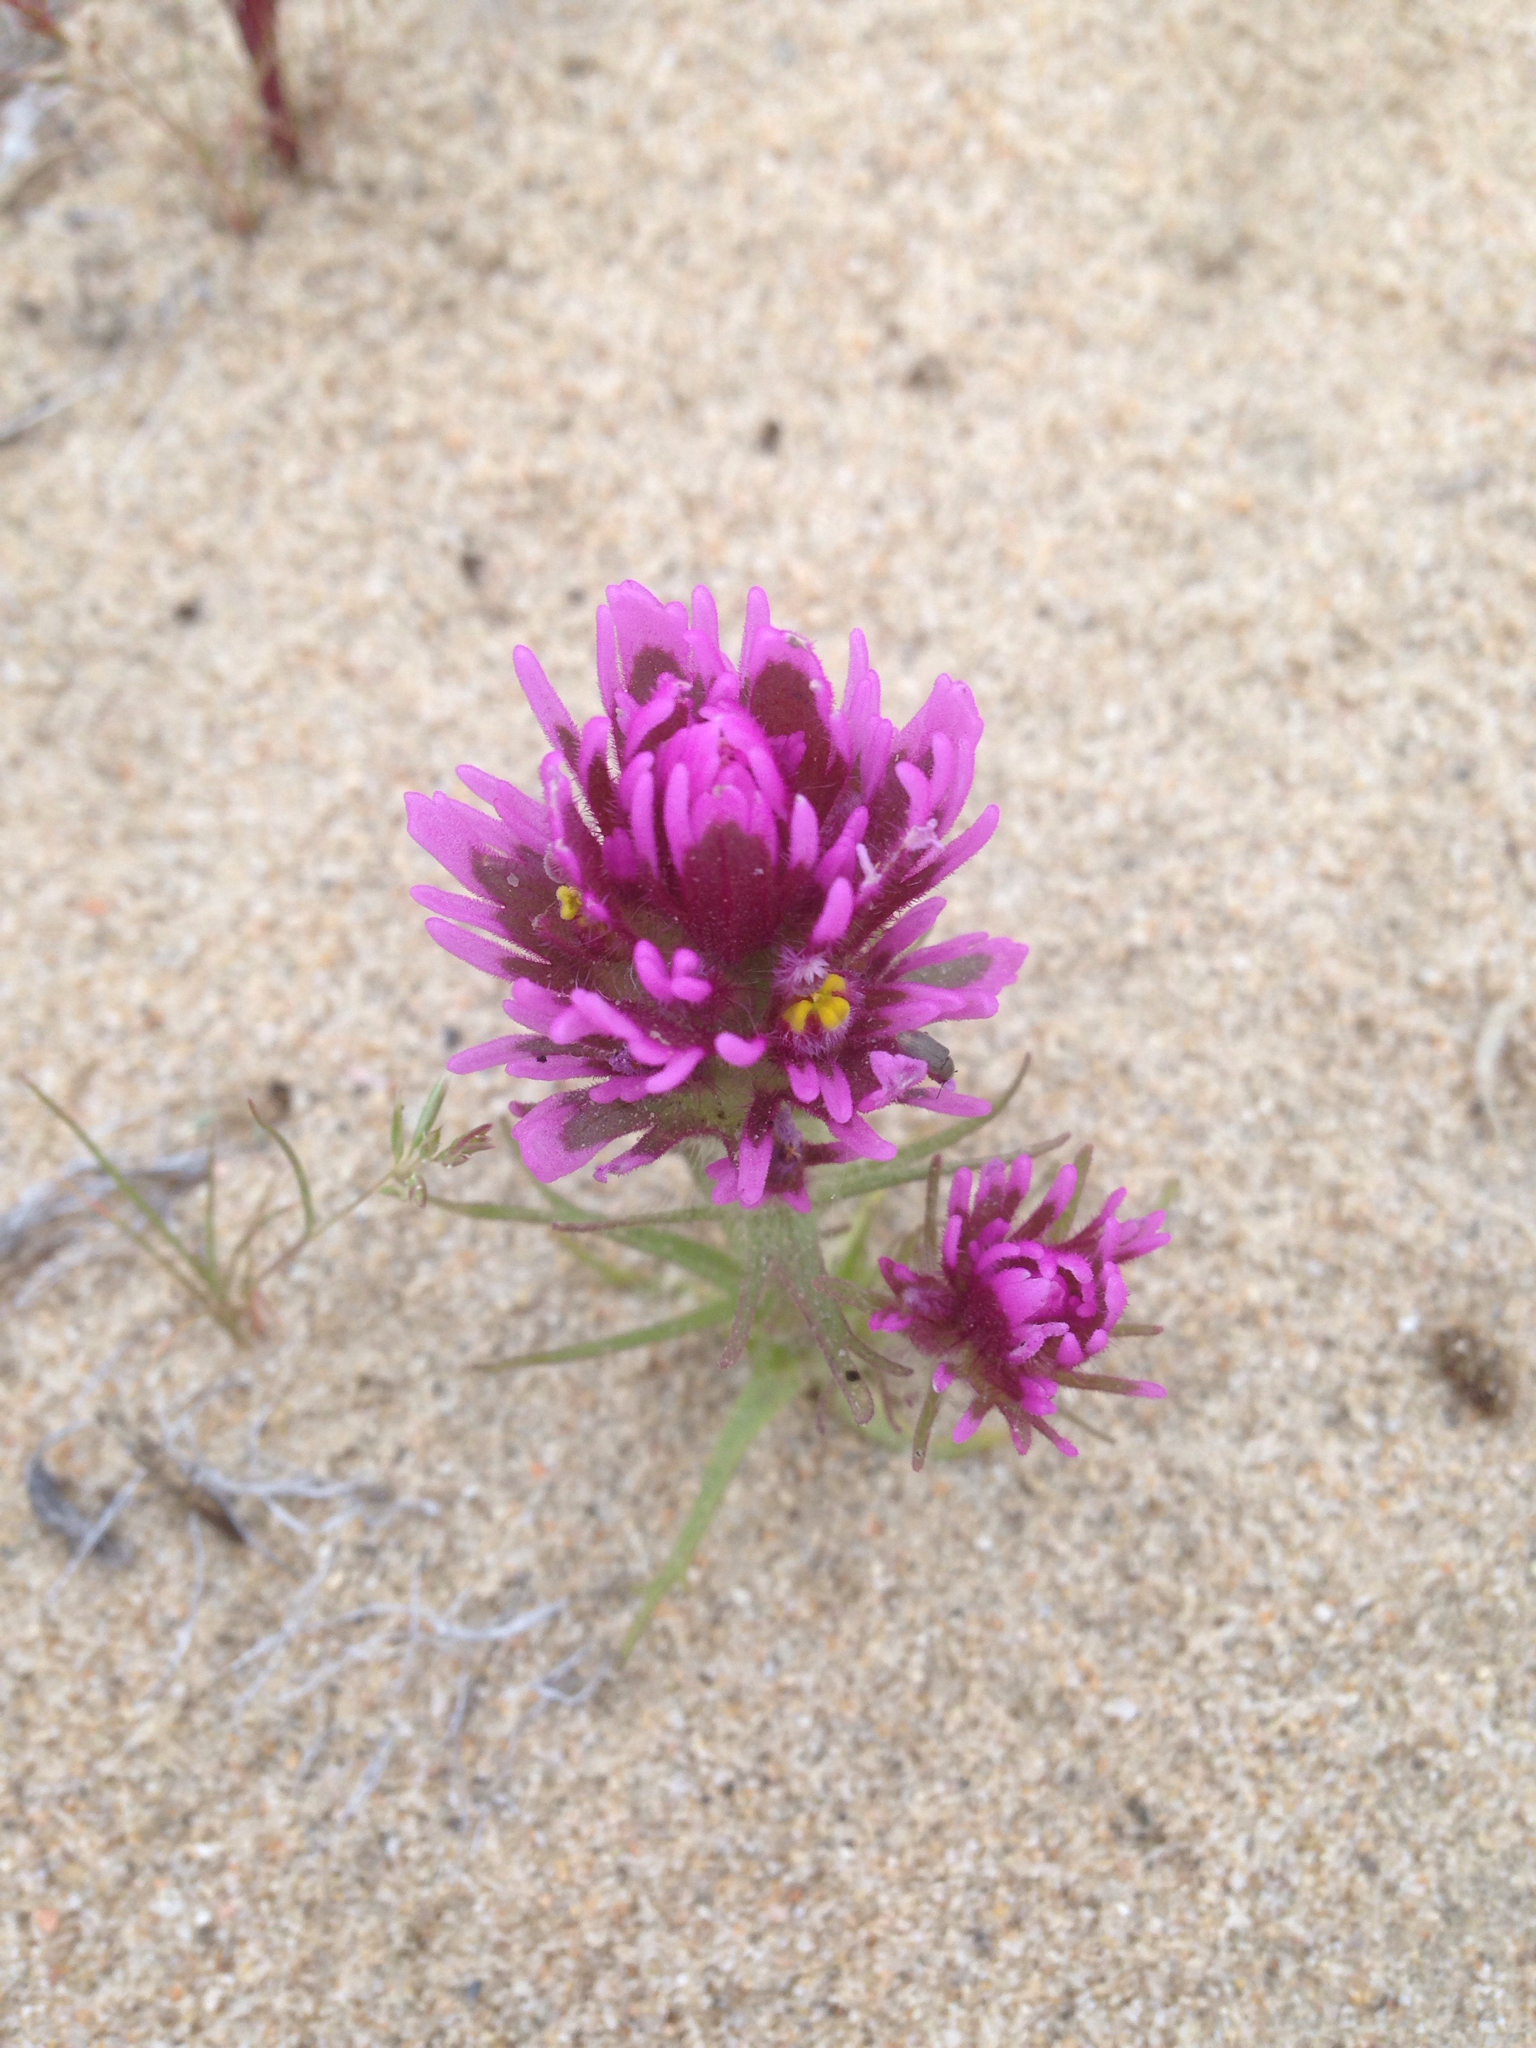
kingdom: Plantae
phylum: Tracheophyta
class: Magnoliopsida
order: Lamiales
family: Orobanchaceae
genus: Castilleja
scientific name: Castilleja exserta
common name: Purple owl-clover
